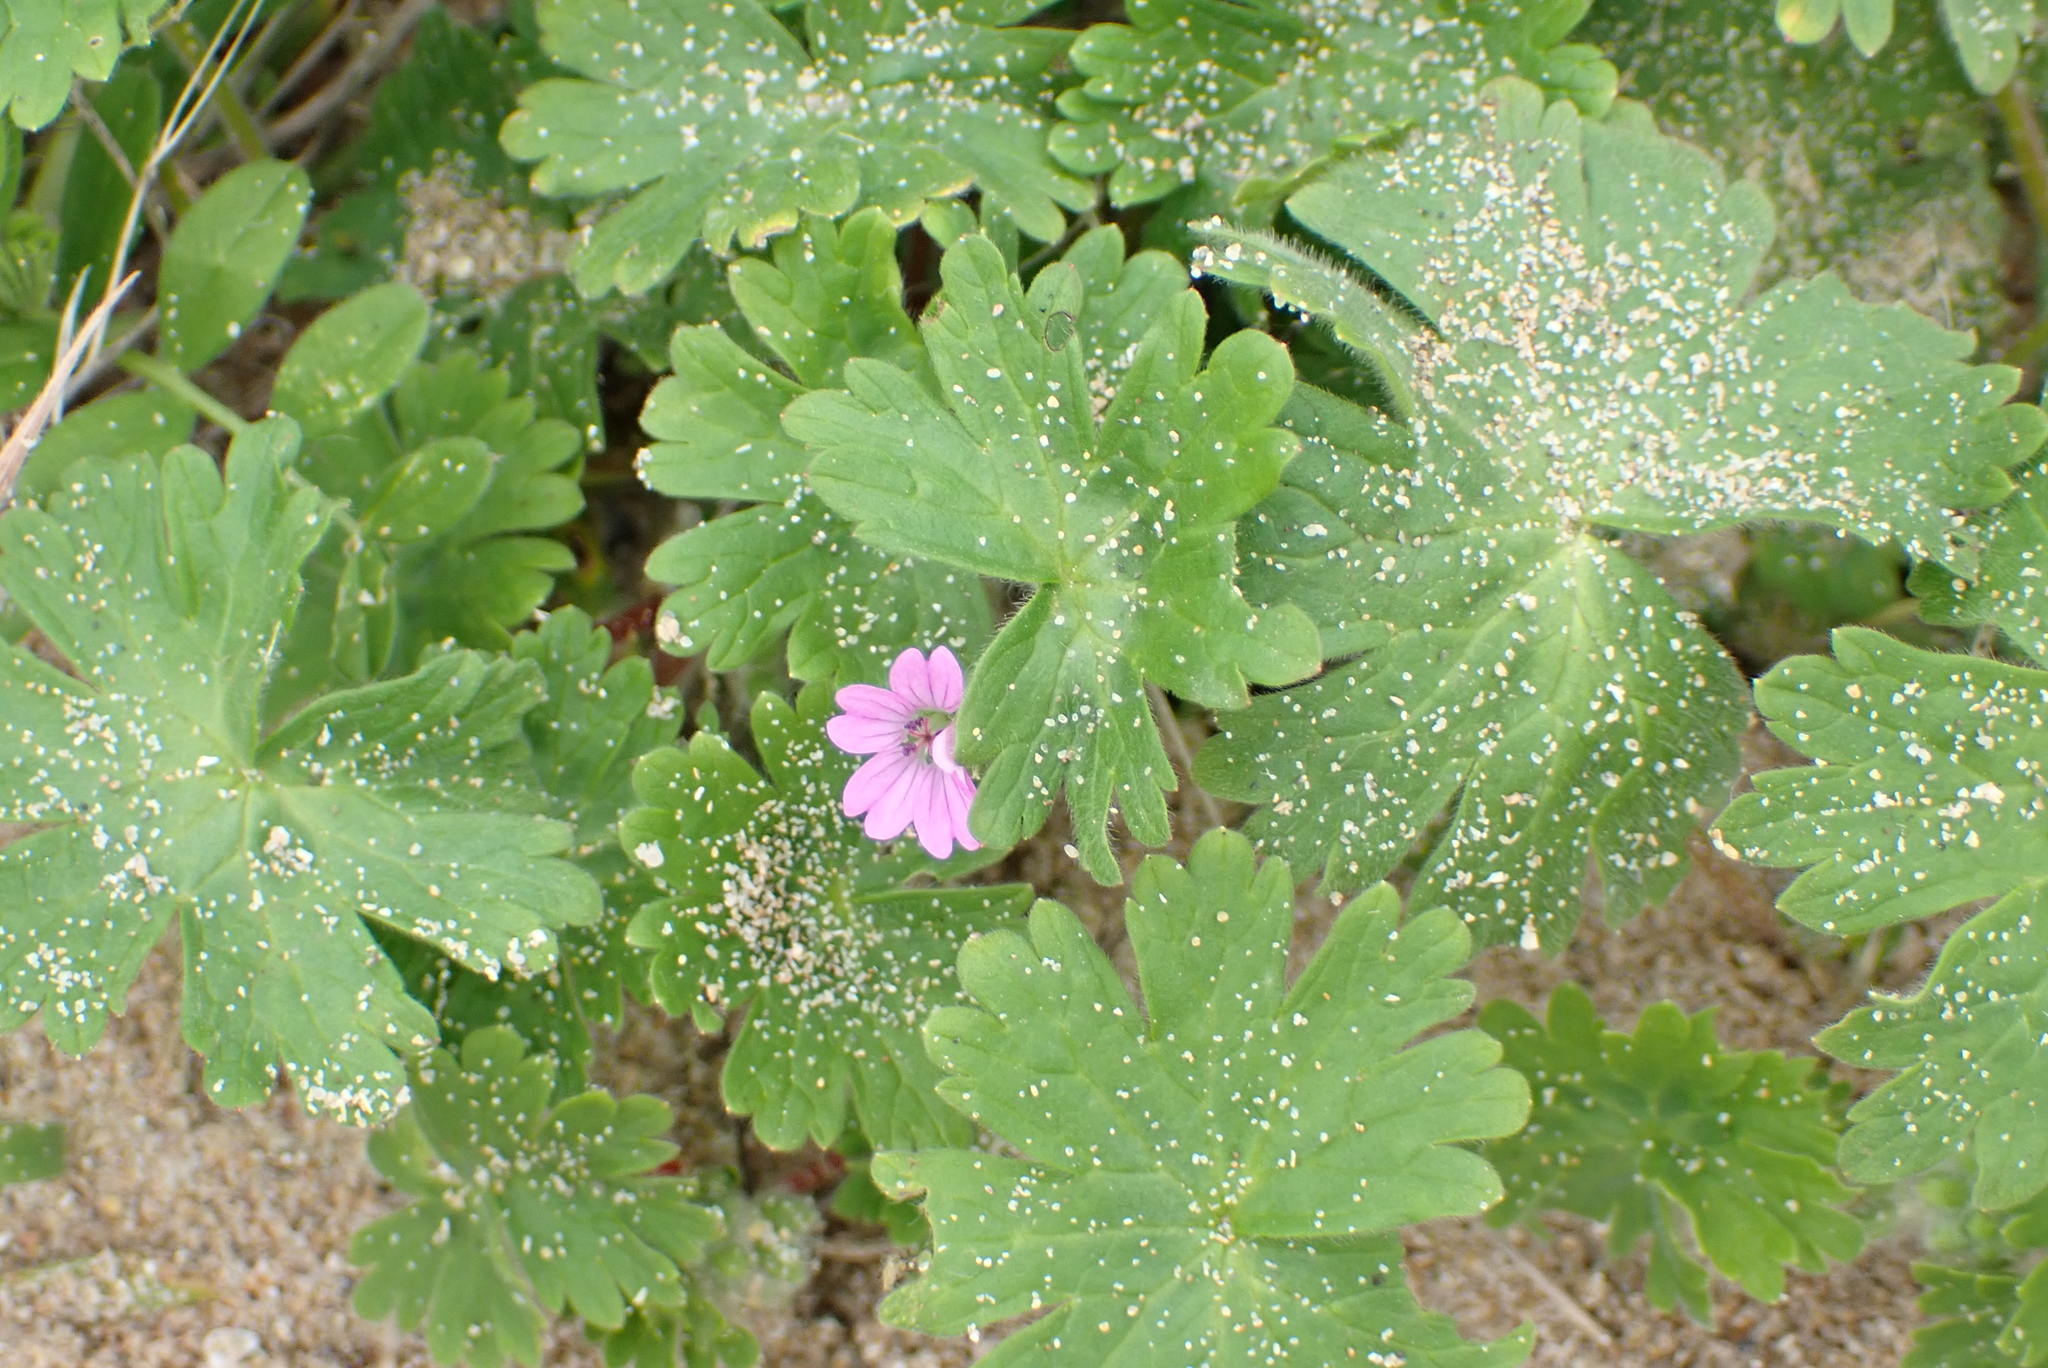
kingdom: Plantae
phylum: Tracheophyta
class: Magnoliopsida
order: Geraniales
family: Geraniaceae
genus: Geranium
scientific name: Geranium molle
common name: Dove's-foot crane's-bill
